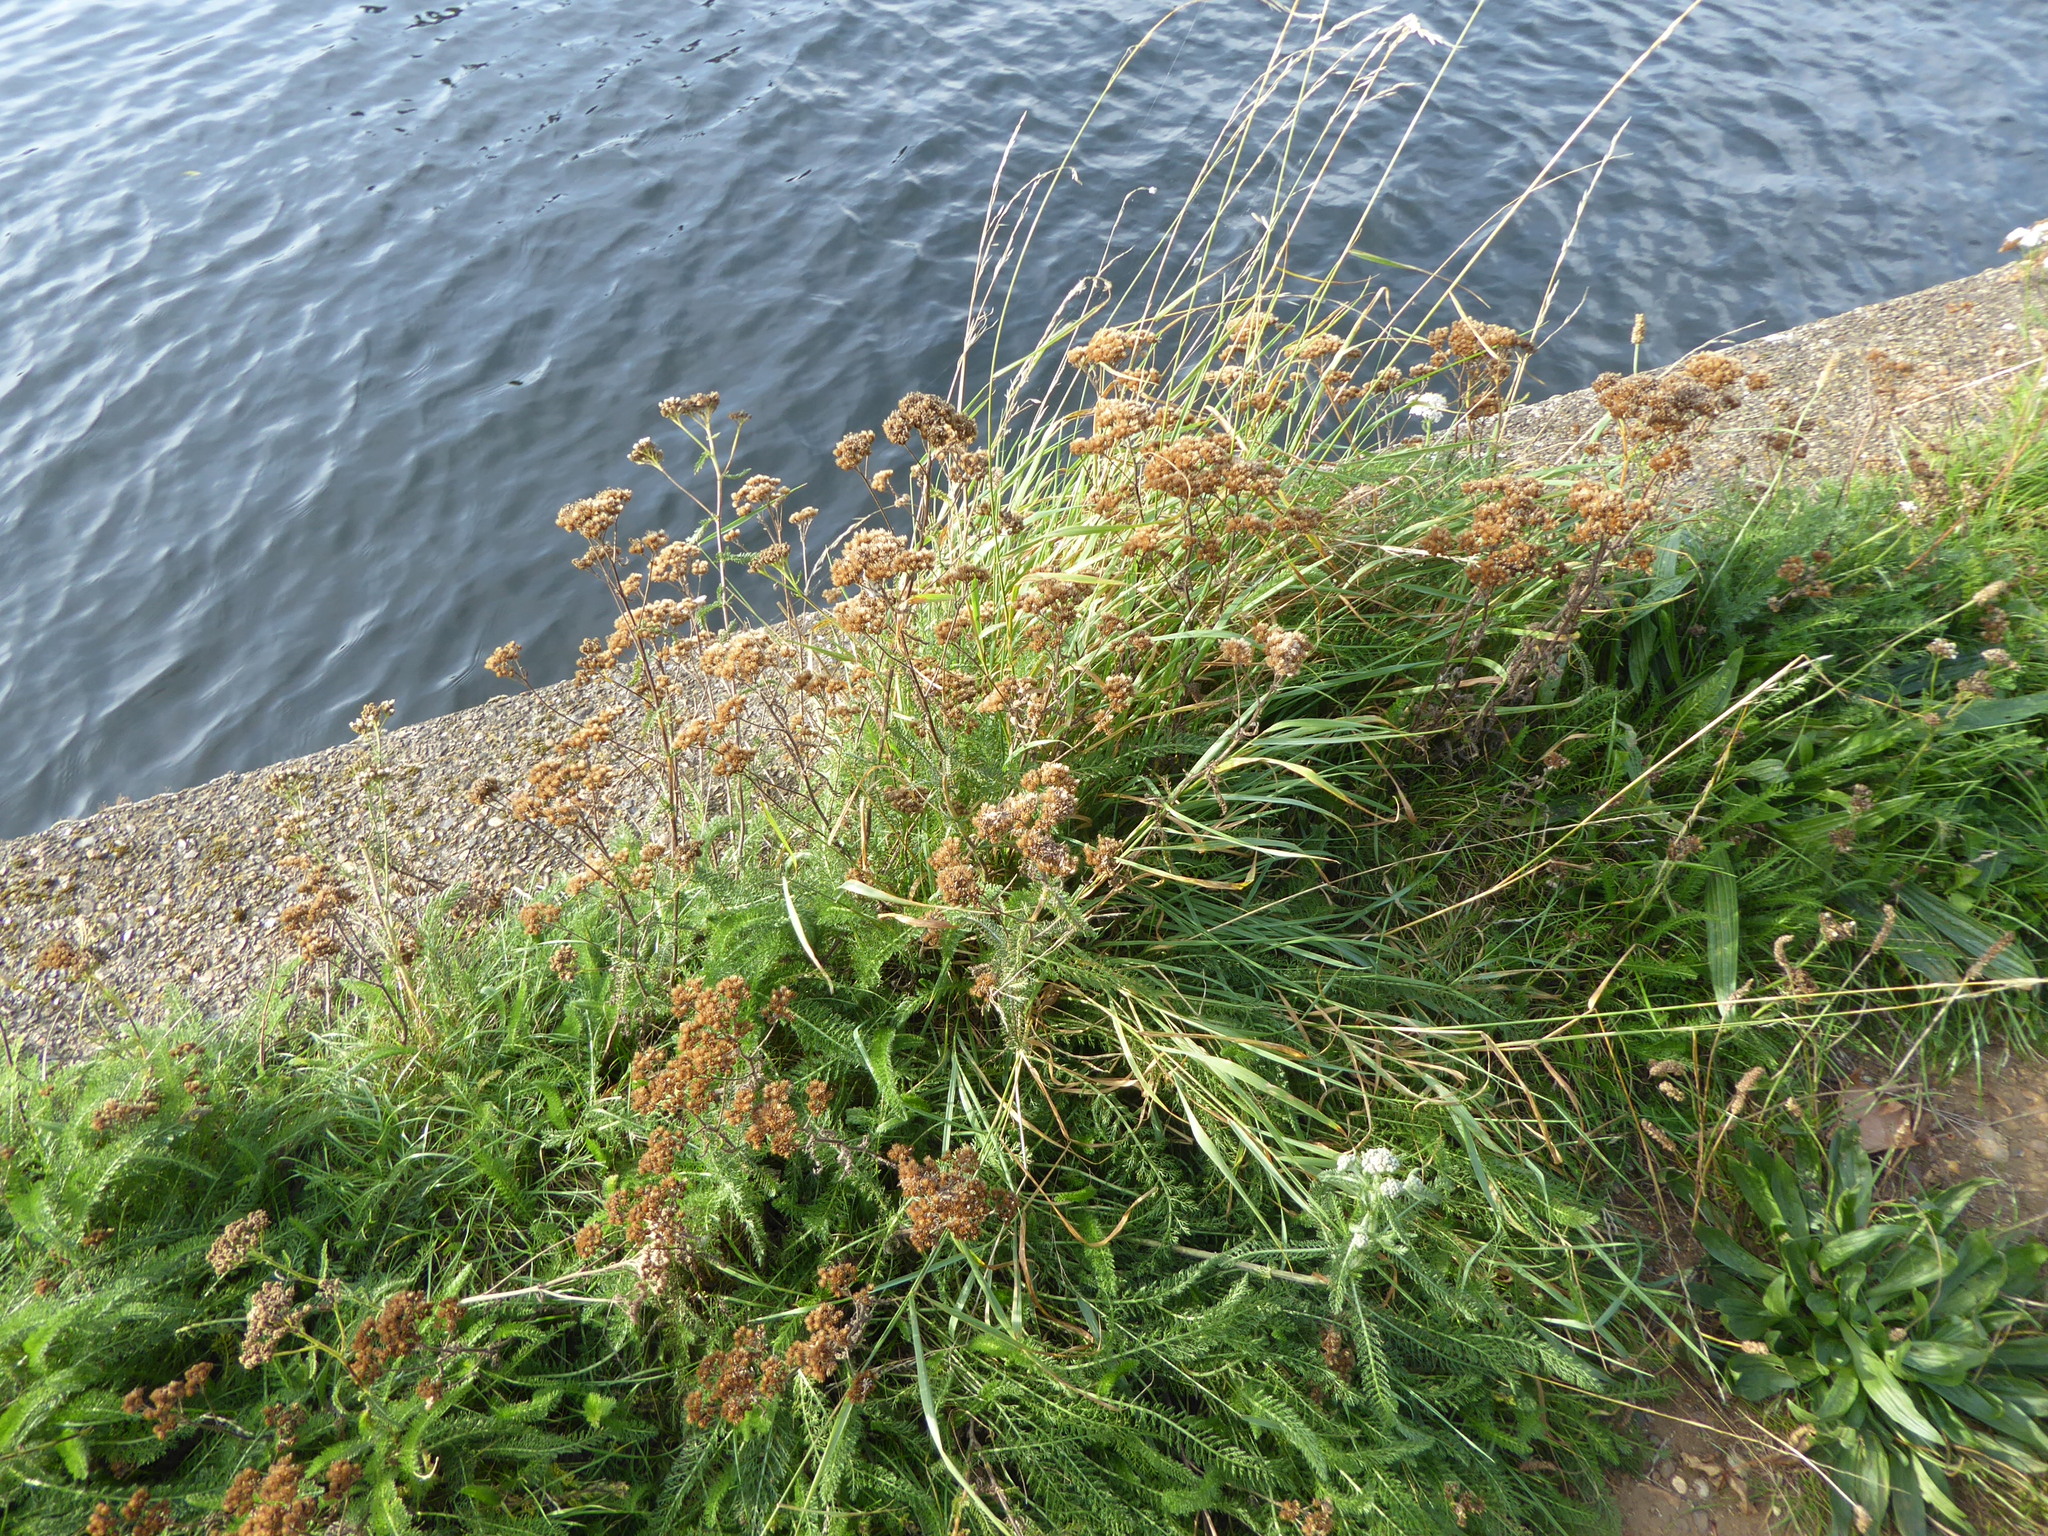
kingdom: Plantae
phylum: Tracheophyta
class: Magnoliopsida
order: Asterales
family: Asteraceae
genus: Achillea
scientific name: Achillea millefolium
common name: Yarrow
